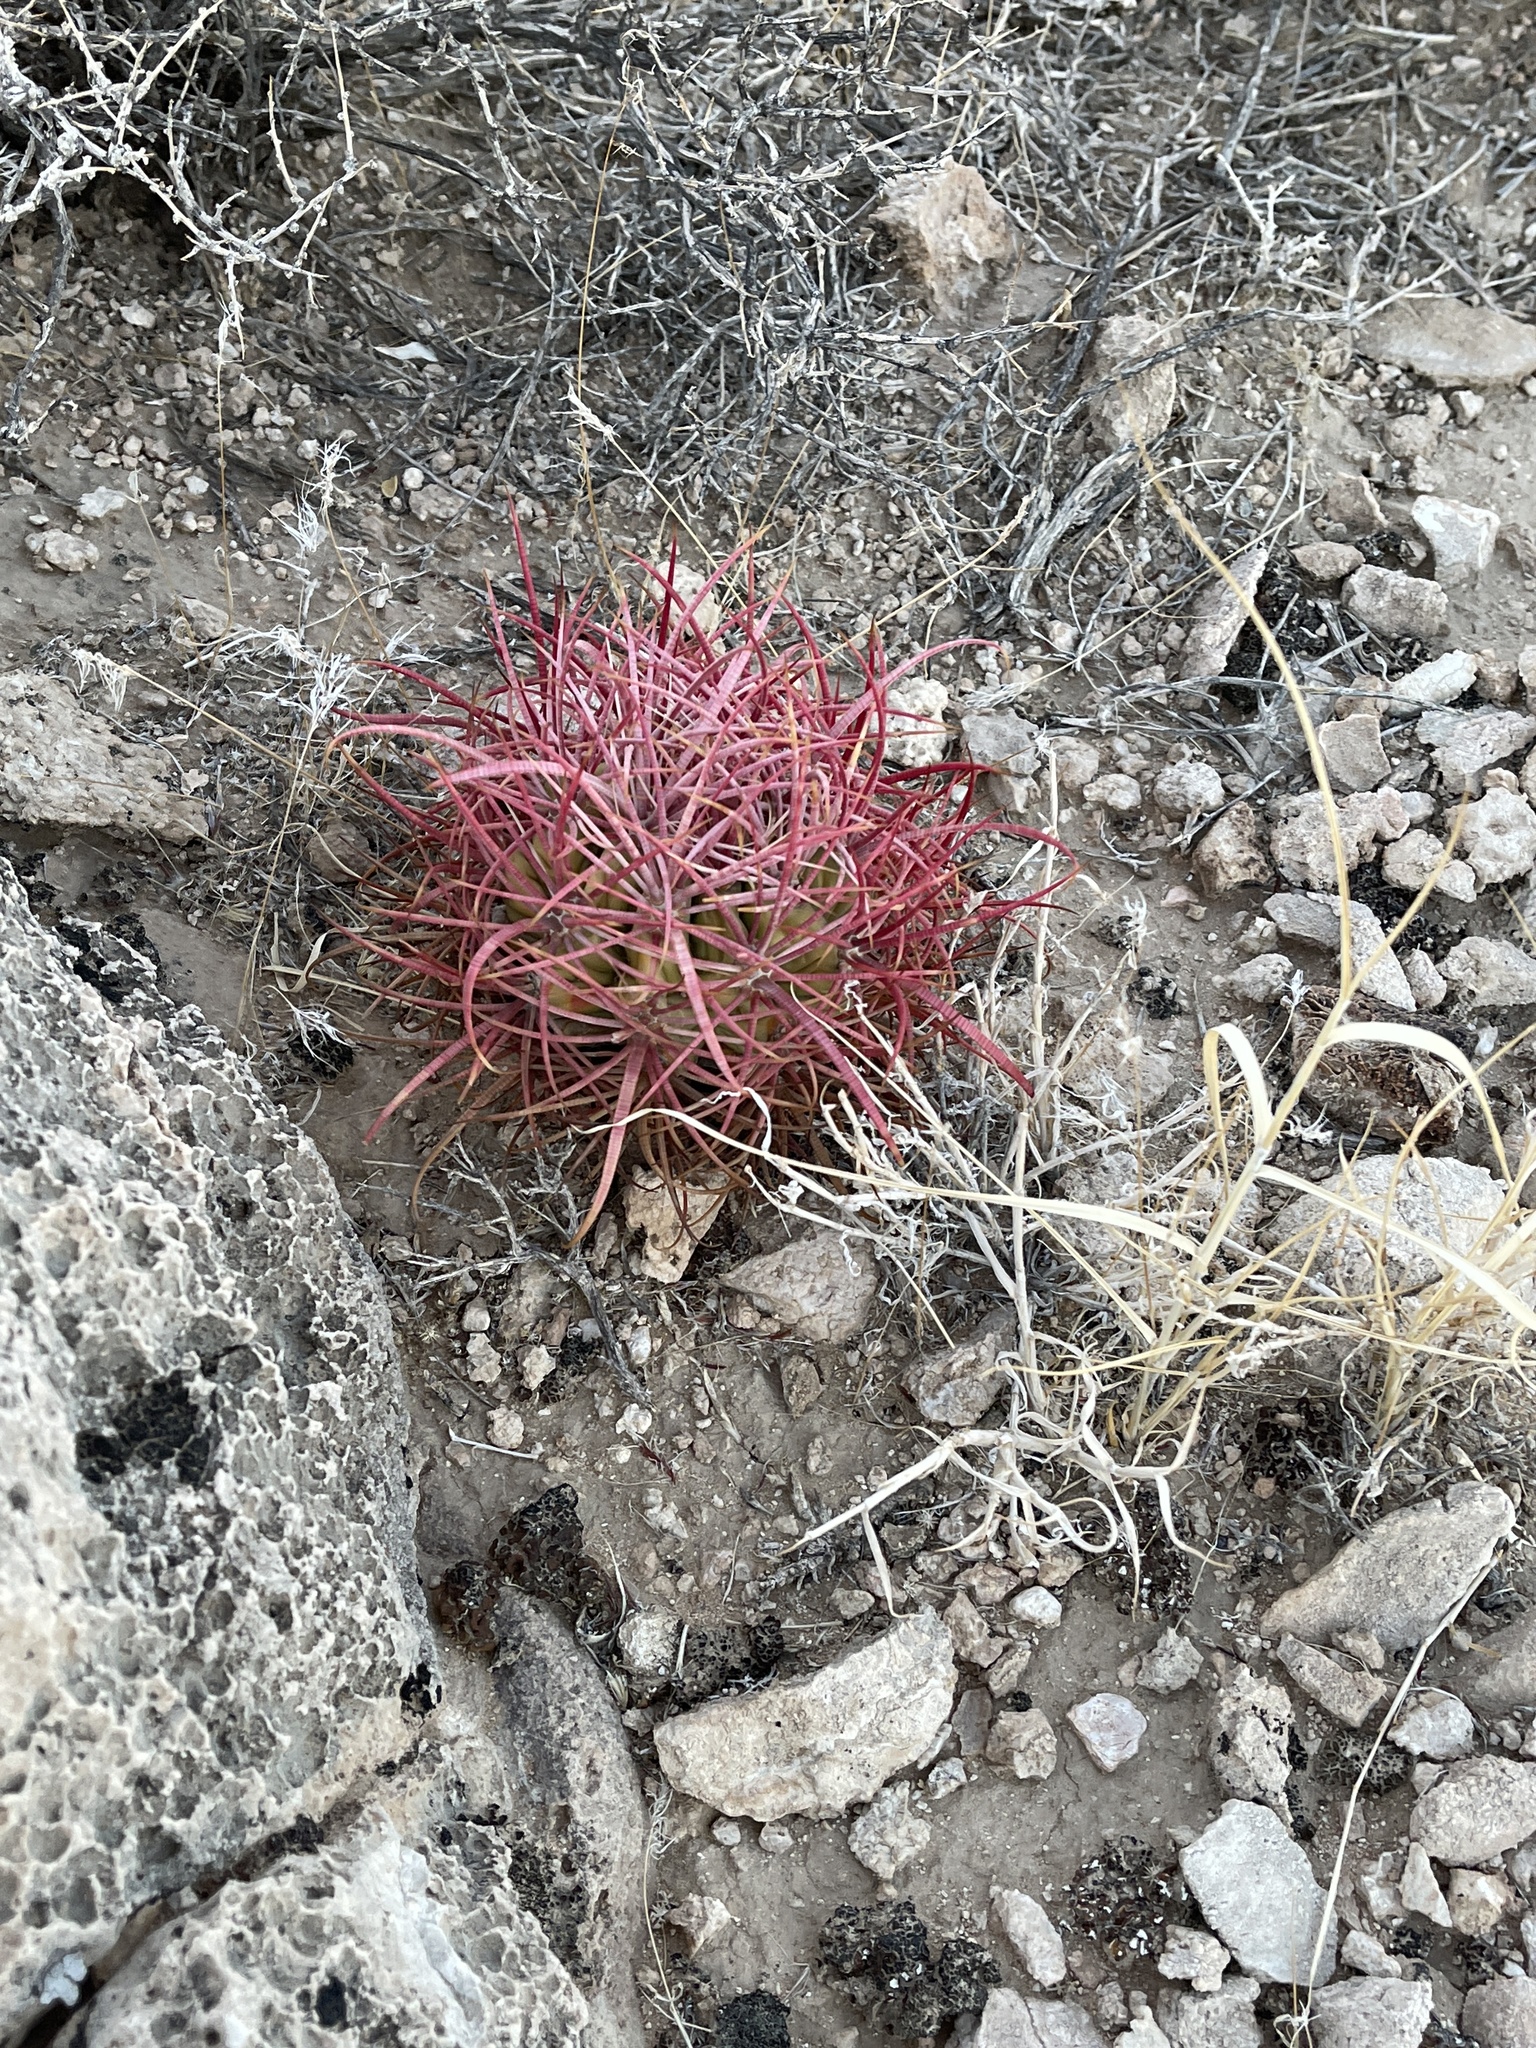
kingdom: Plantae
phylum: Tracheophyta
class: Magnoliopsida
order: Caryophyllales
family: Cactaceae
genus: Ferocactus
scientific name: Ferocactus cylindraceus
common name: California barrel cactus
